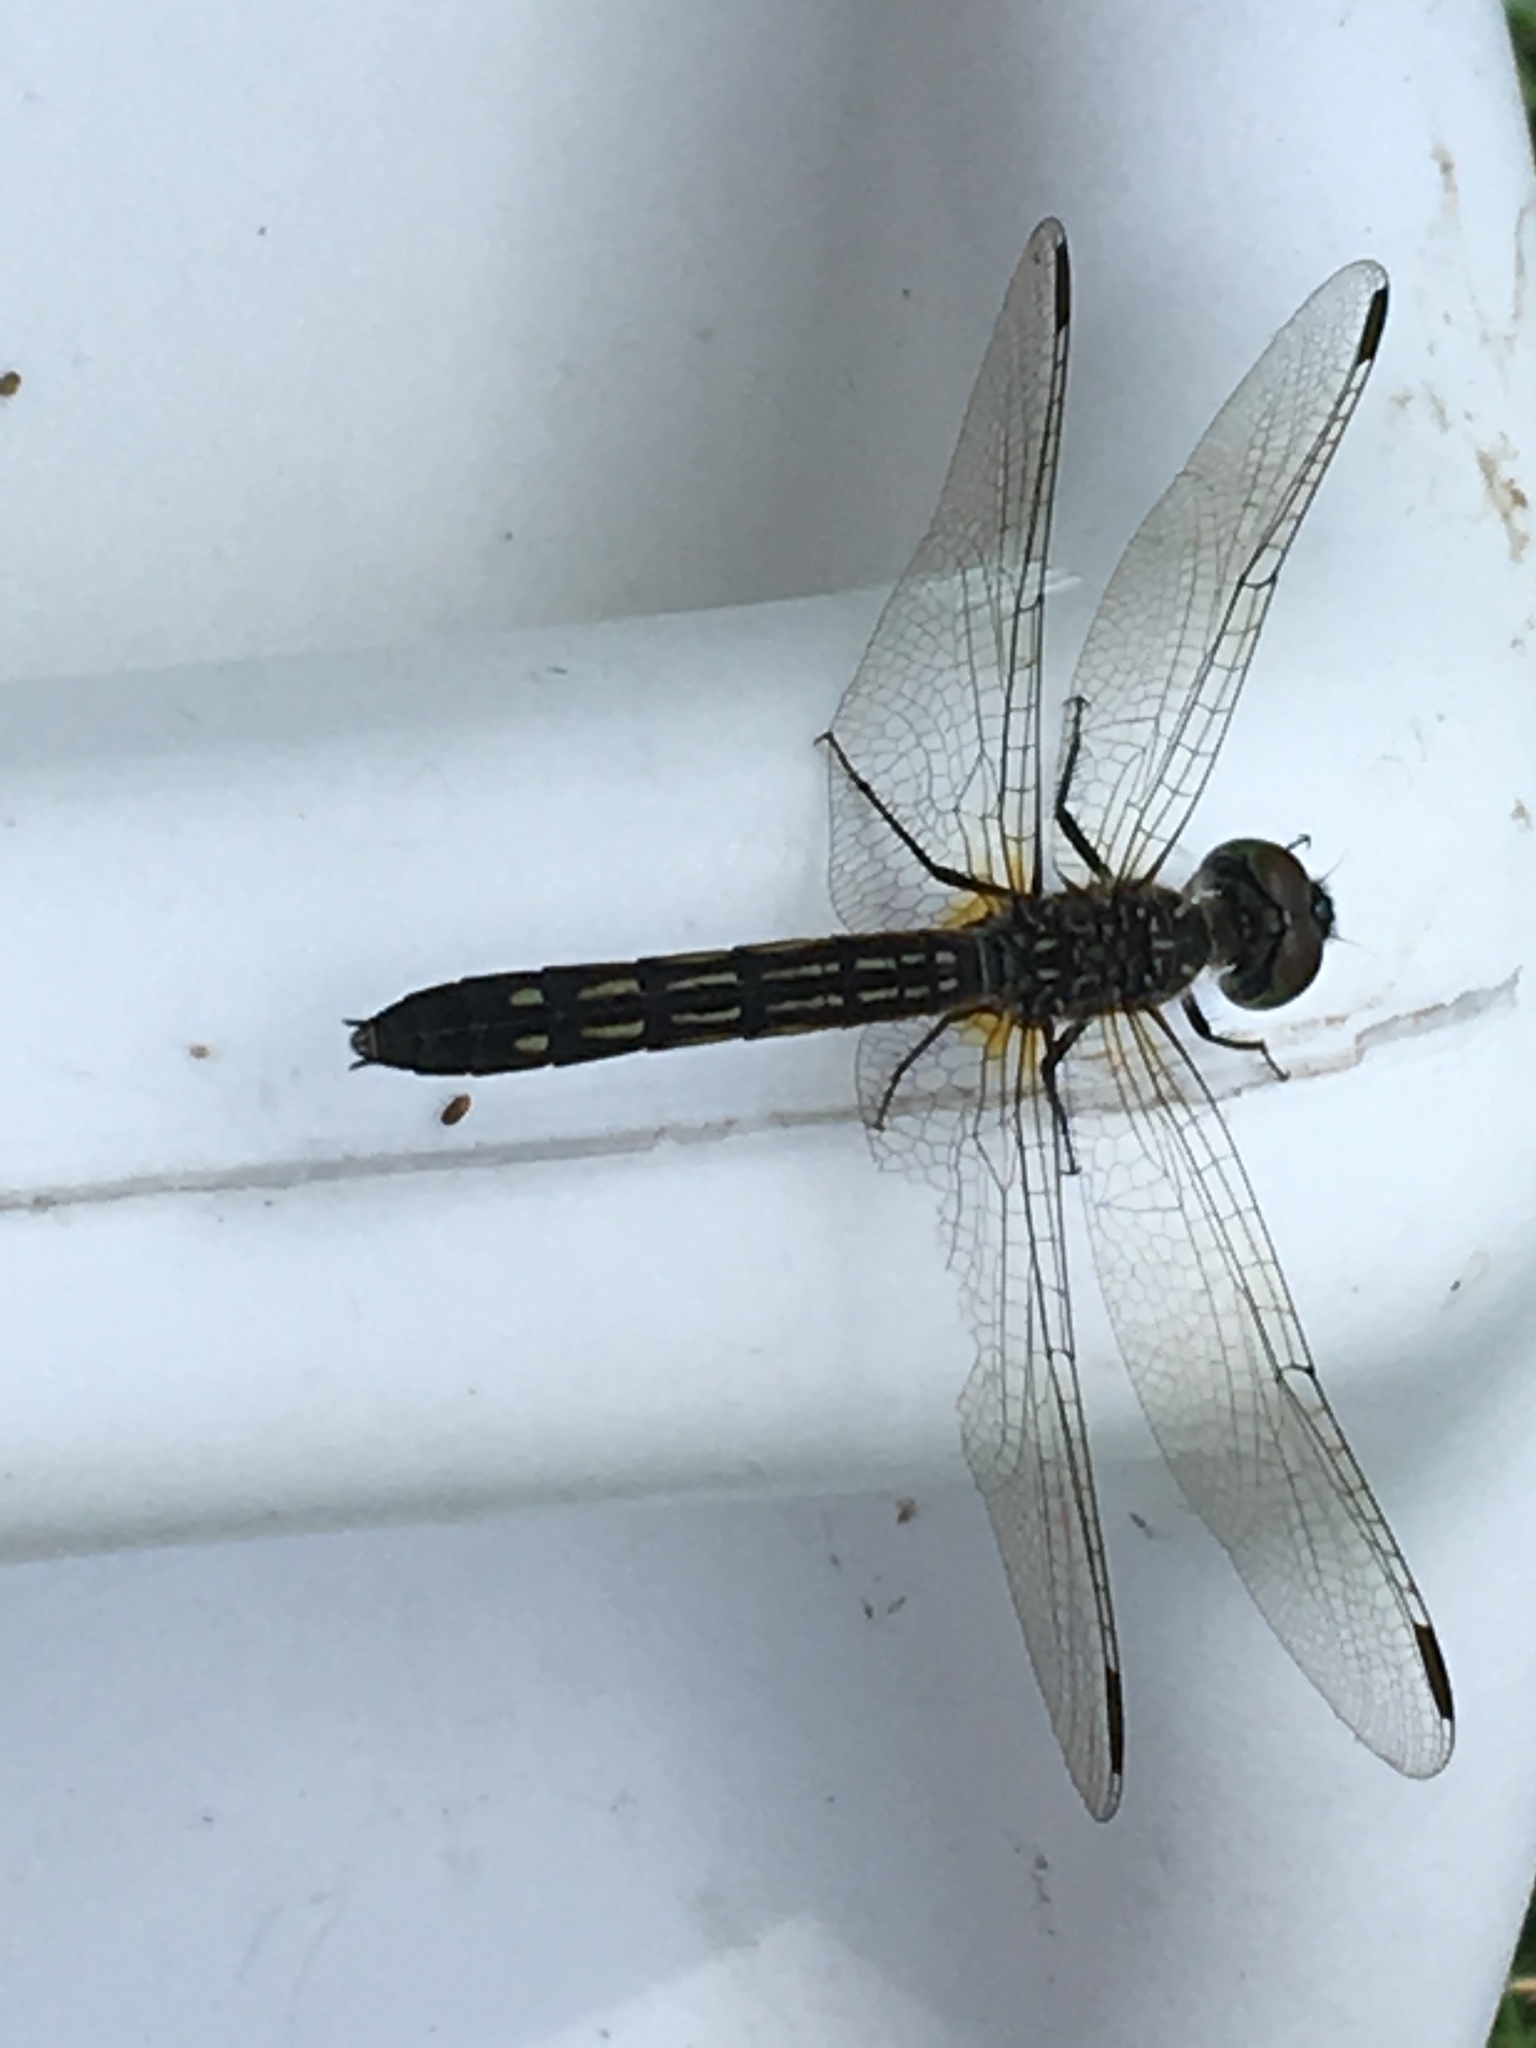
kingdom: Animalia
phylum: Arthropoda
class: Insecta
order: Odonata
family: Libellulidae
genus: Pachydiplax
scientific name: Pachydiplax longipennis
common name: Blue dasher
